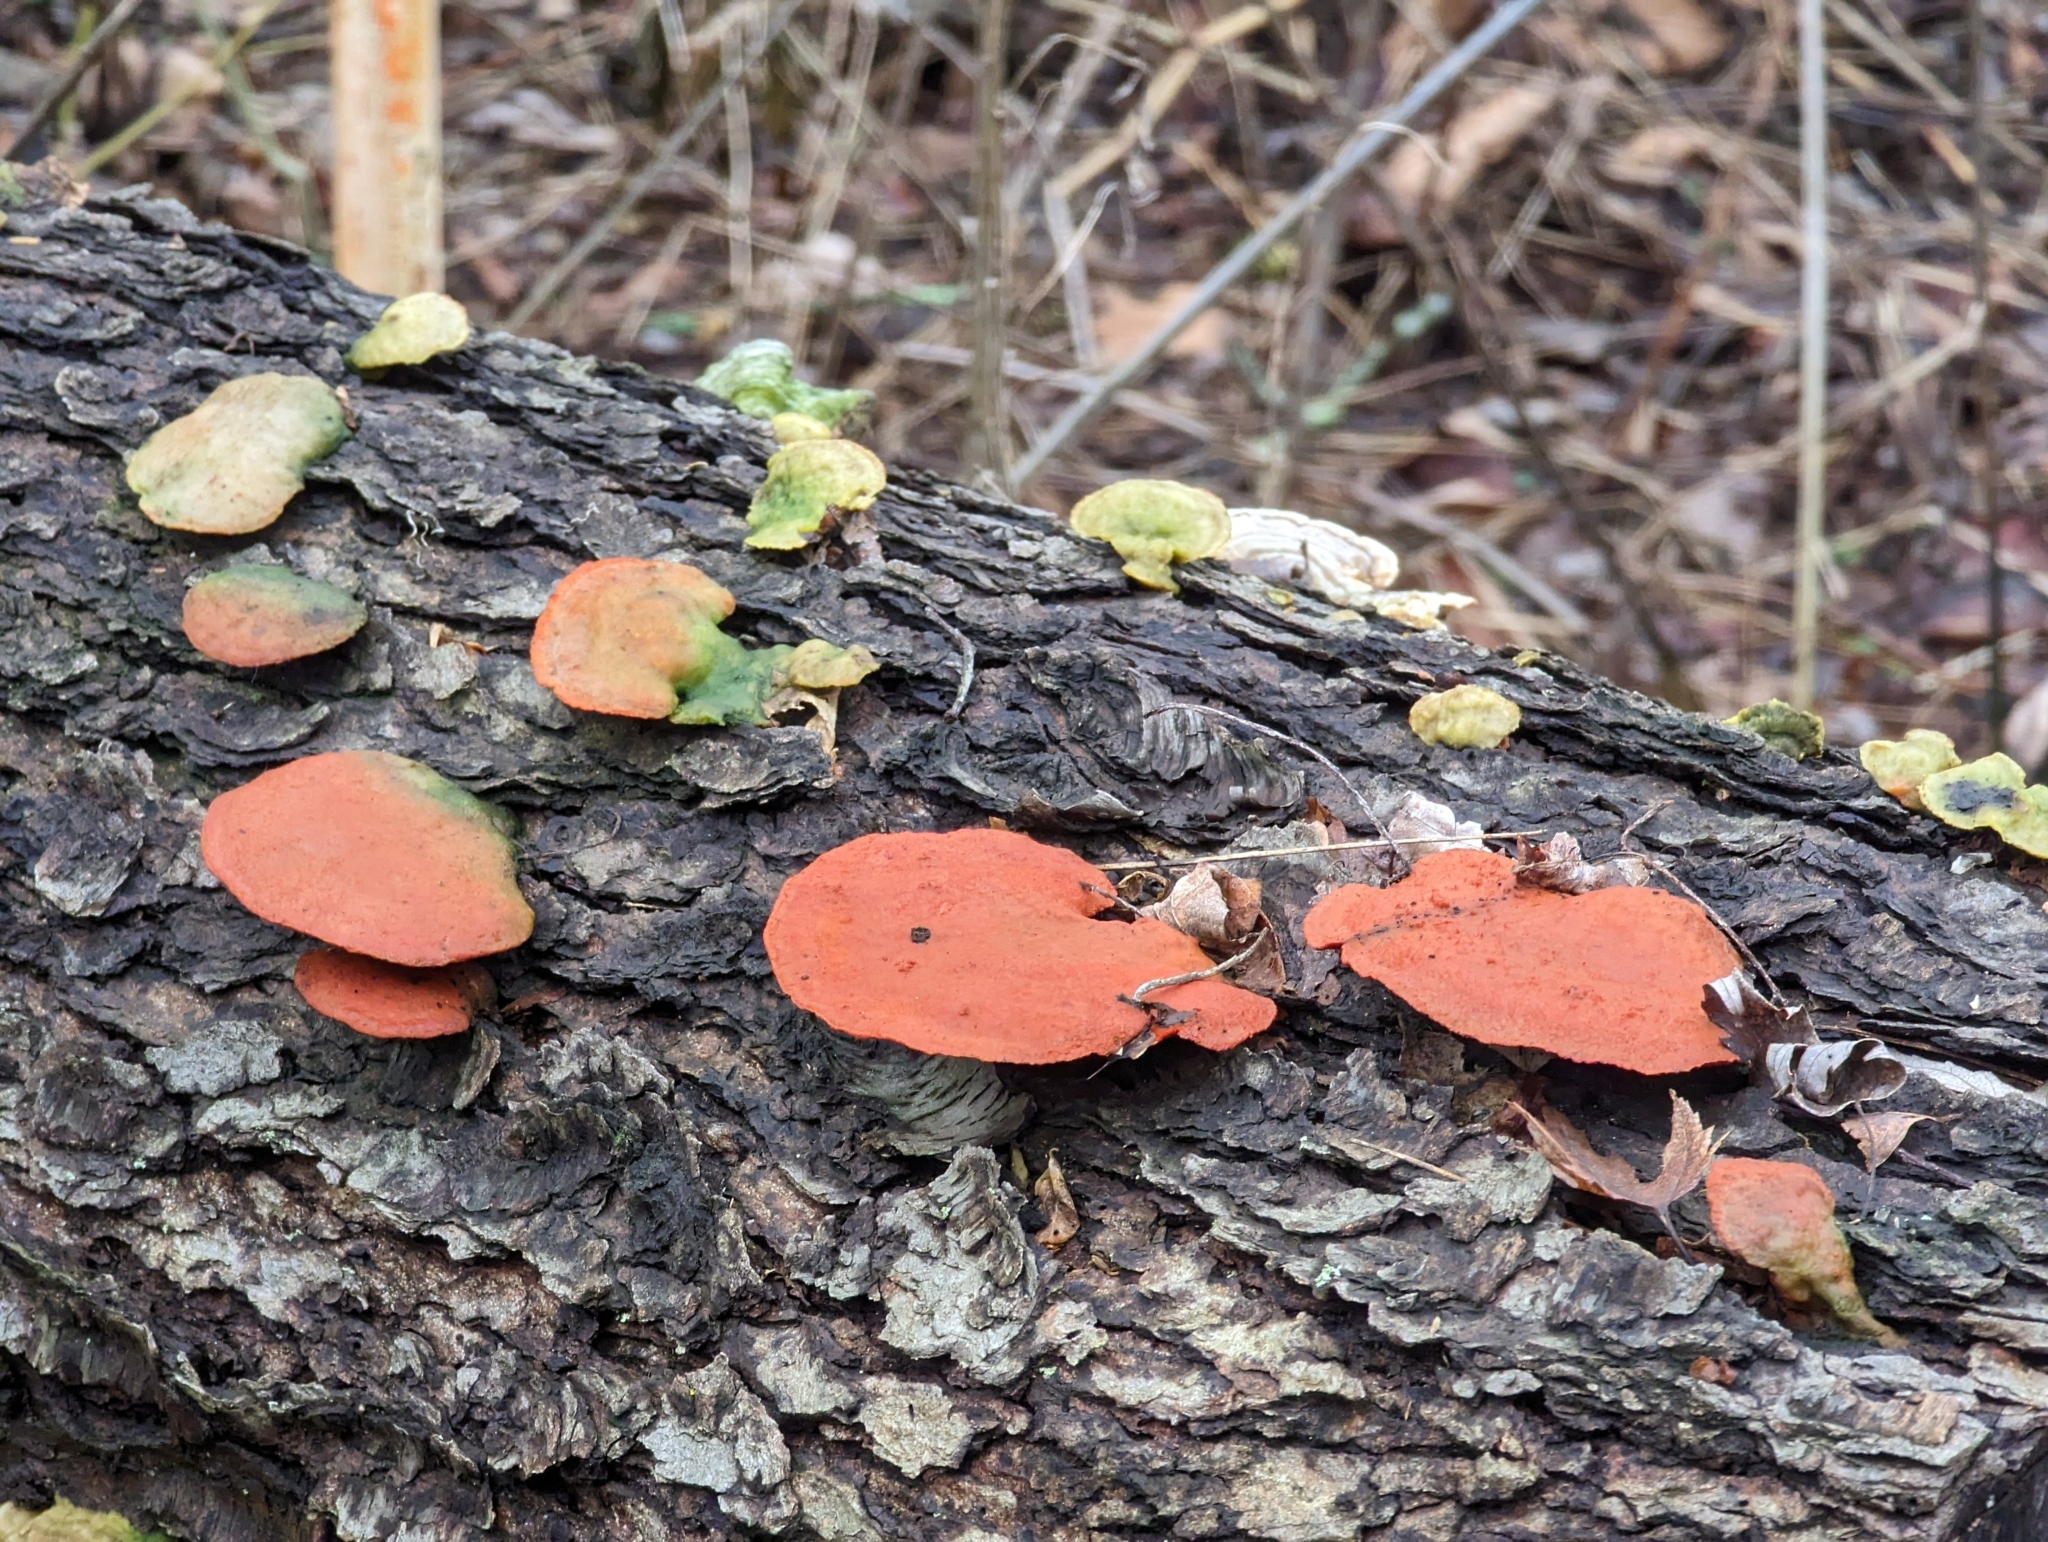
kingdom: Fungi
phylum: Basidiomycota
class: Agaricomycetes
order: Polyporales
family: Polyporaceae
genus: Trametes
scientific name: Trametes cinnabarina
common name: Northern cinnabar polypore
